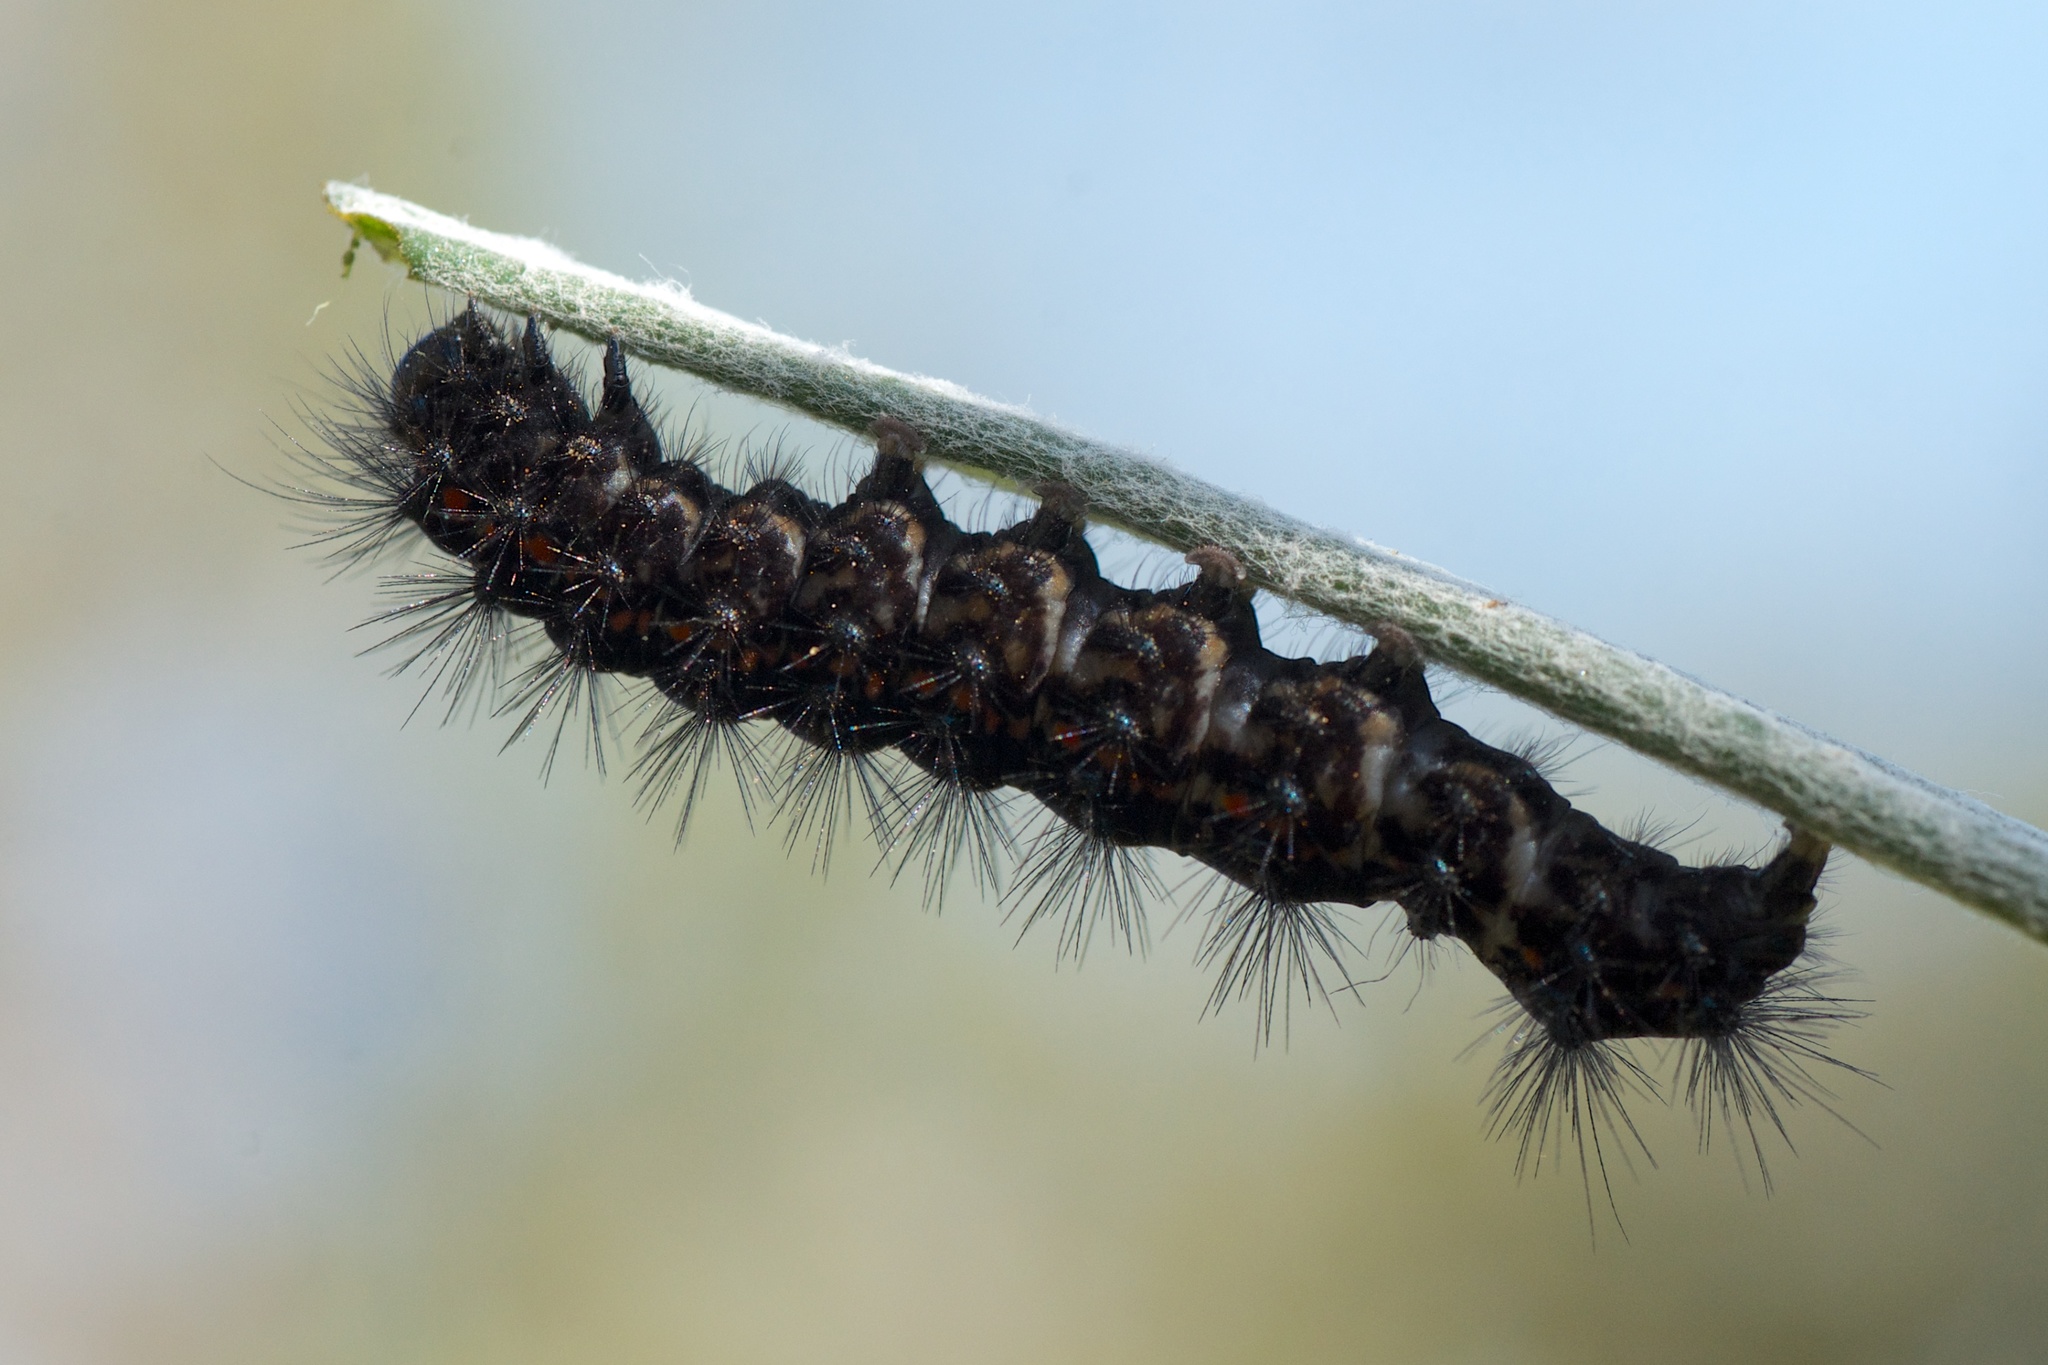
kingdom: Animalia
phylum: Arthropoda
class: Insecta
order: Lepidoptera
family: Erebidae
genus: Nyctemera
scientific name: Nyctemera annulatum
